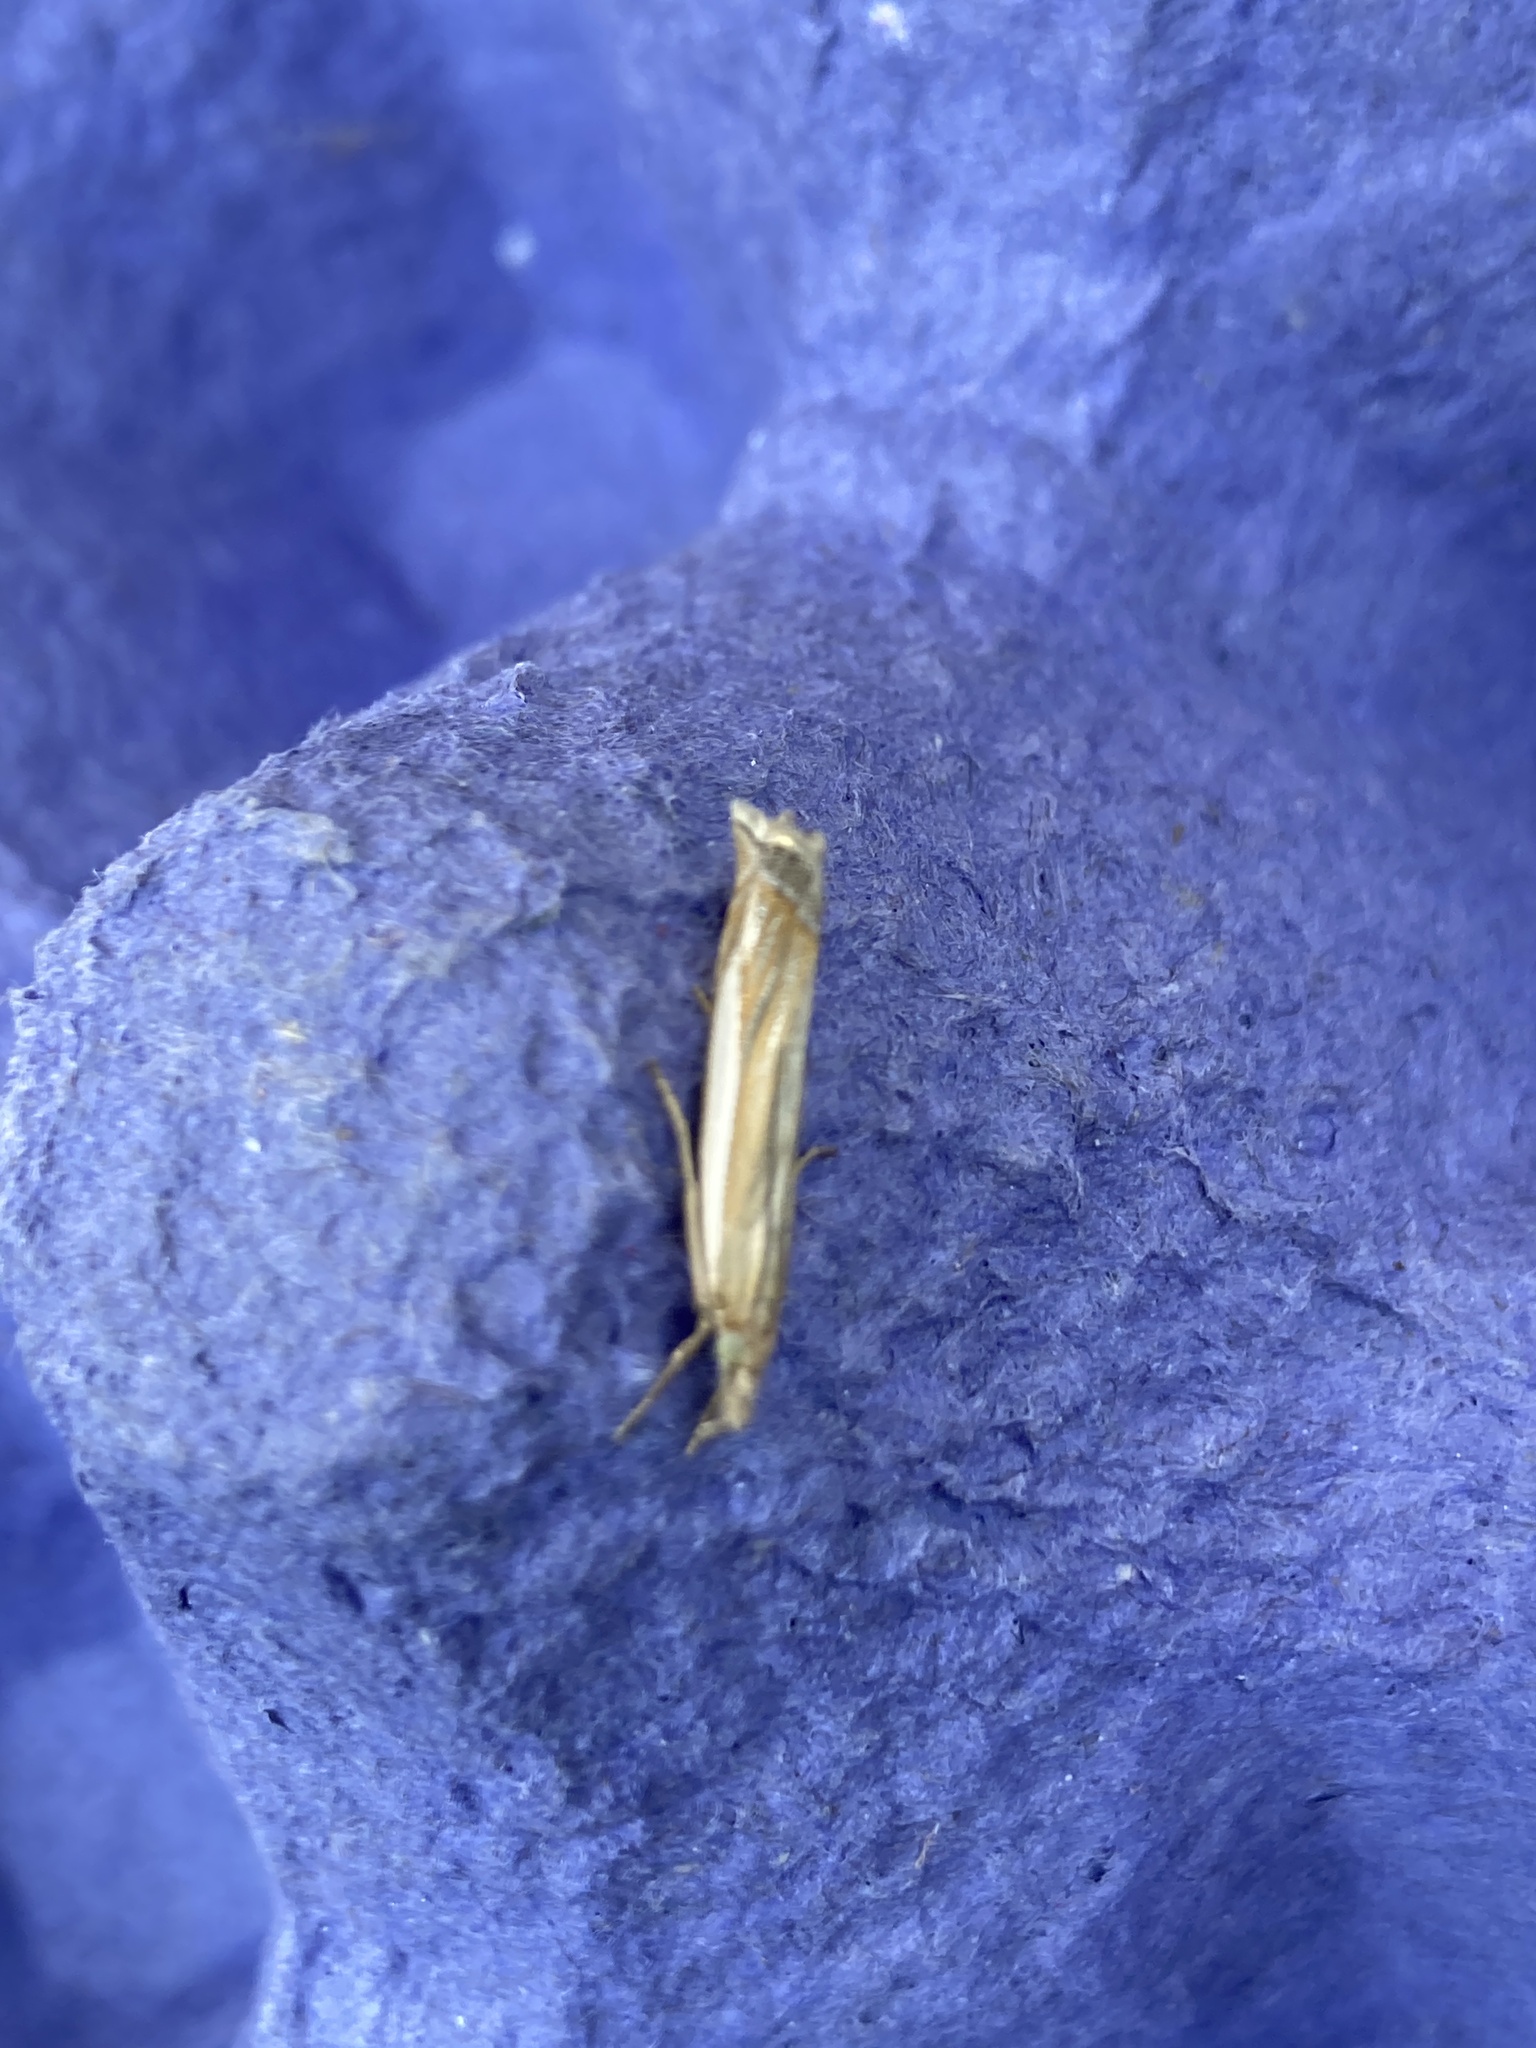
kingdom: Animalia
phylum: Arthropoda
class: Insecta
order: Lepidoptera
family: Crambidae
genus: Crambus
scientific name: Crambus pascuella
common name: Inlaid grass-veneer
